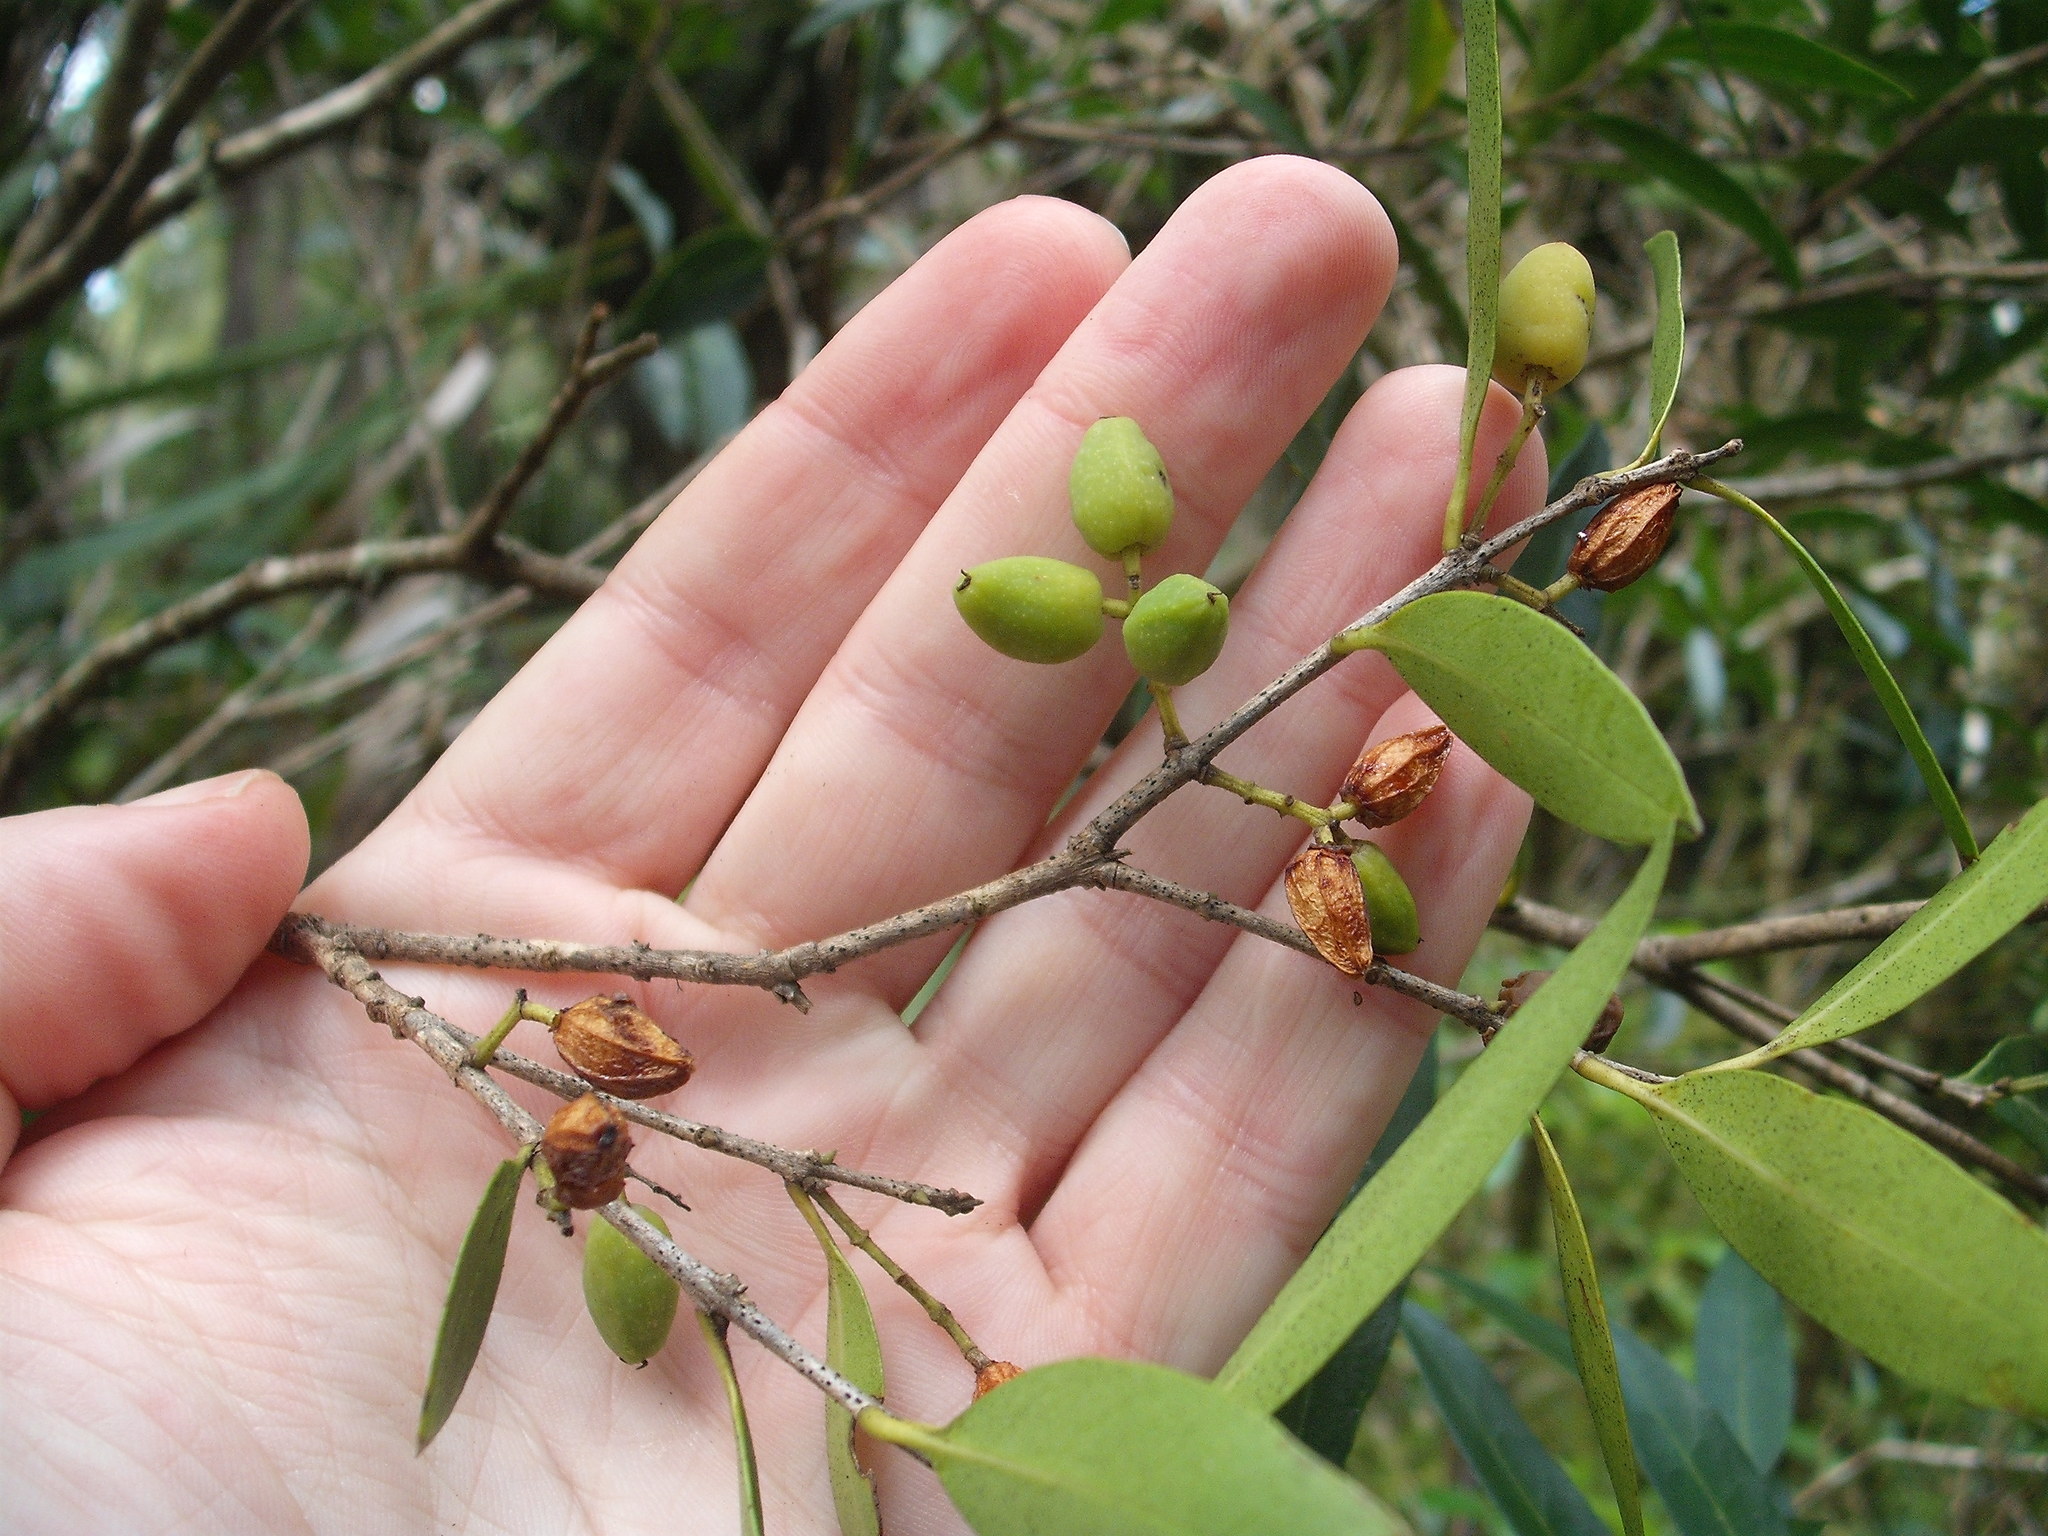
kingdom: Plantae
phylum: Tracheophyta
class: Magnoliopsida
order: Lamiales
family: Oleaceae
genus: Nestegis
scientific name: Nestegis lanceolata
